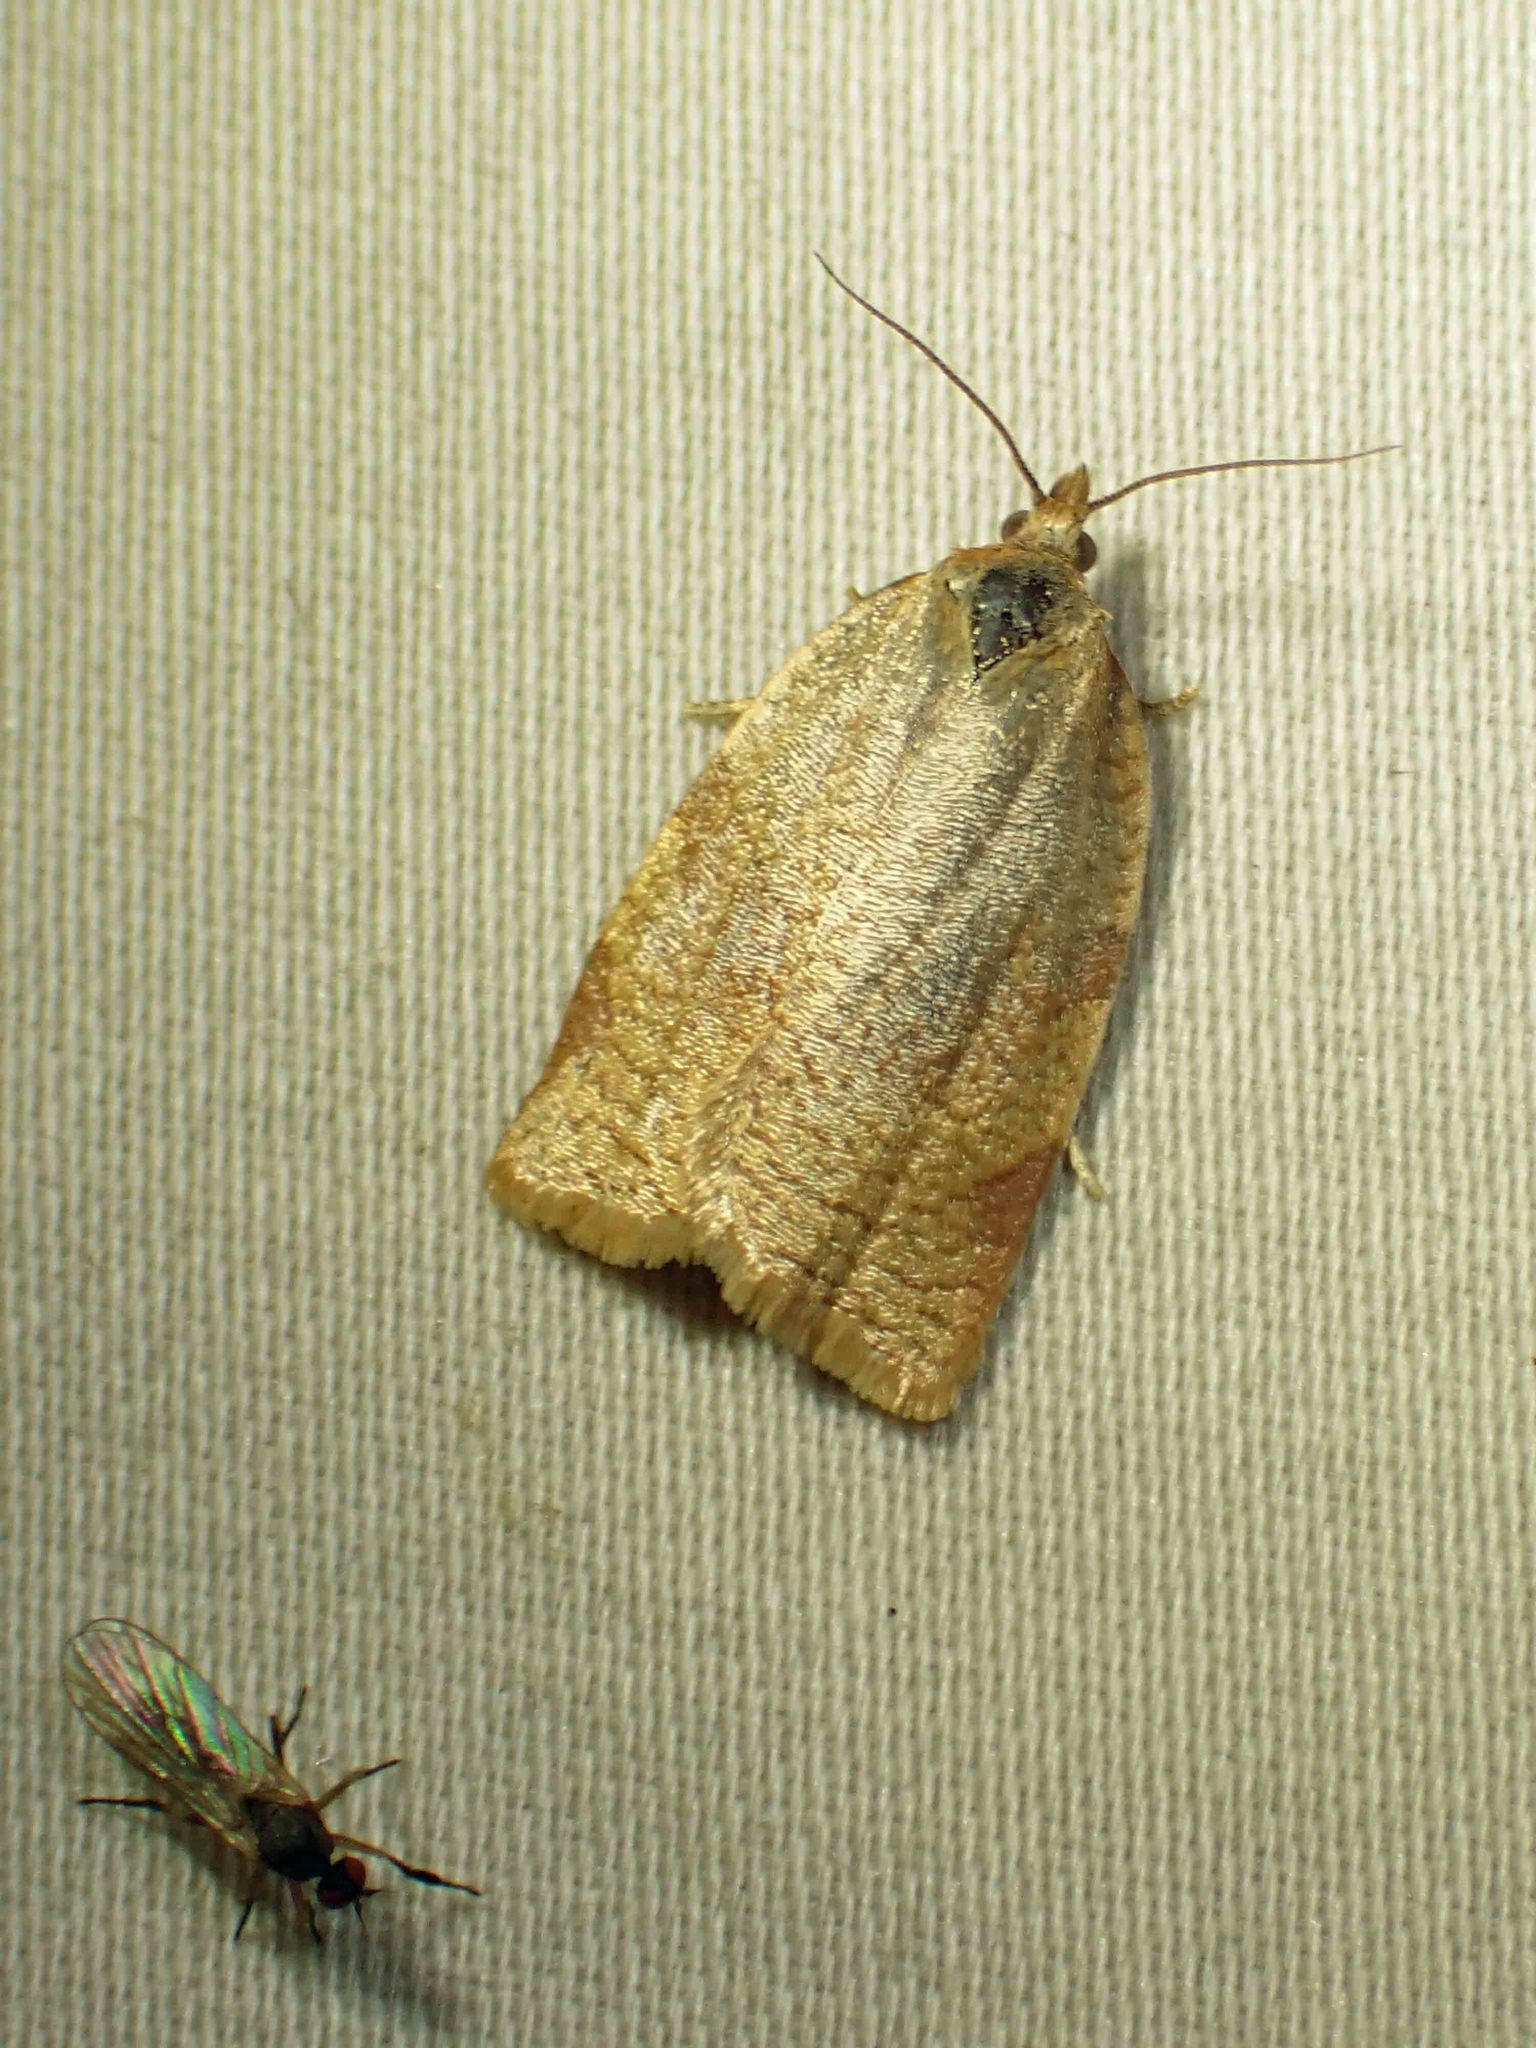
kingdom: Animalia
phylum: Arthropoda
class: Insecta
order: Lepidoptera
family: Tortricidae
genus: Aphelia
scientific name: Aphelia alleniana
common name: Allen's tortrix moth
